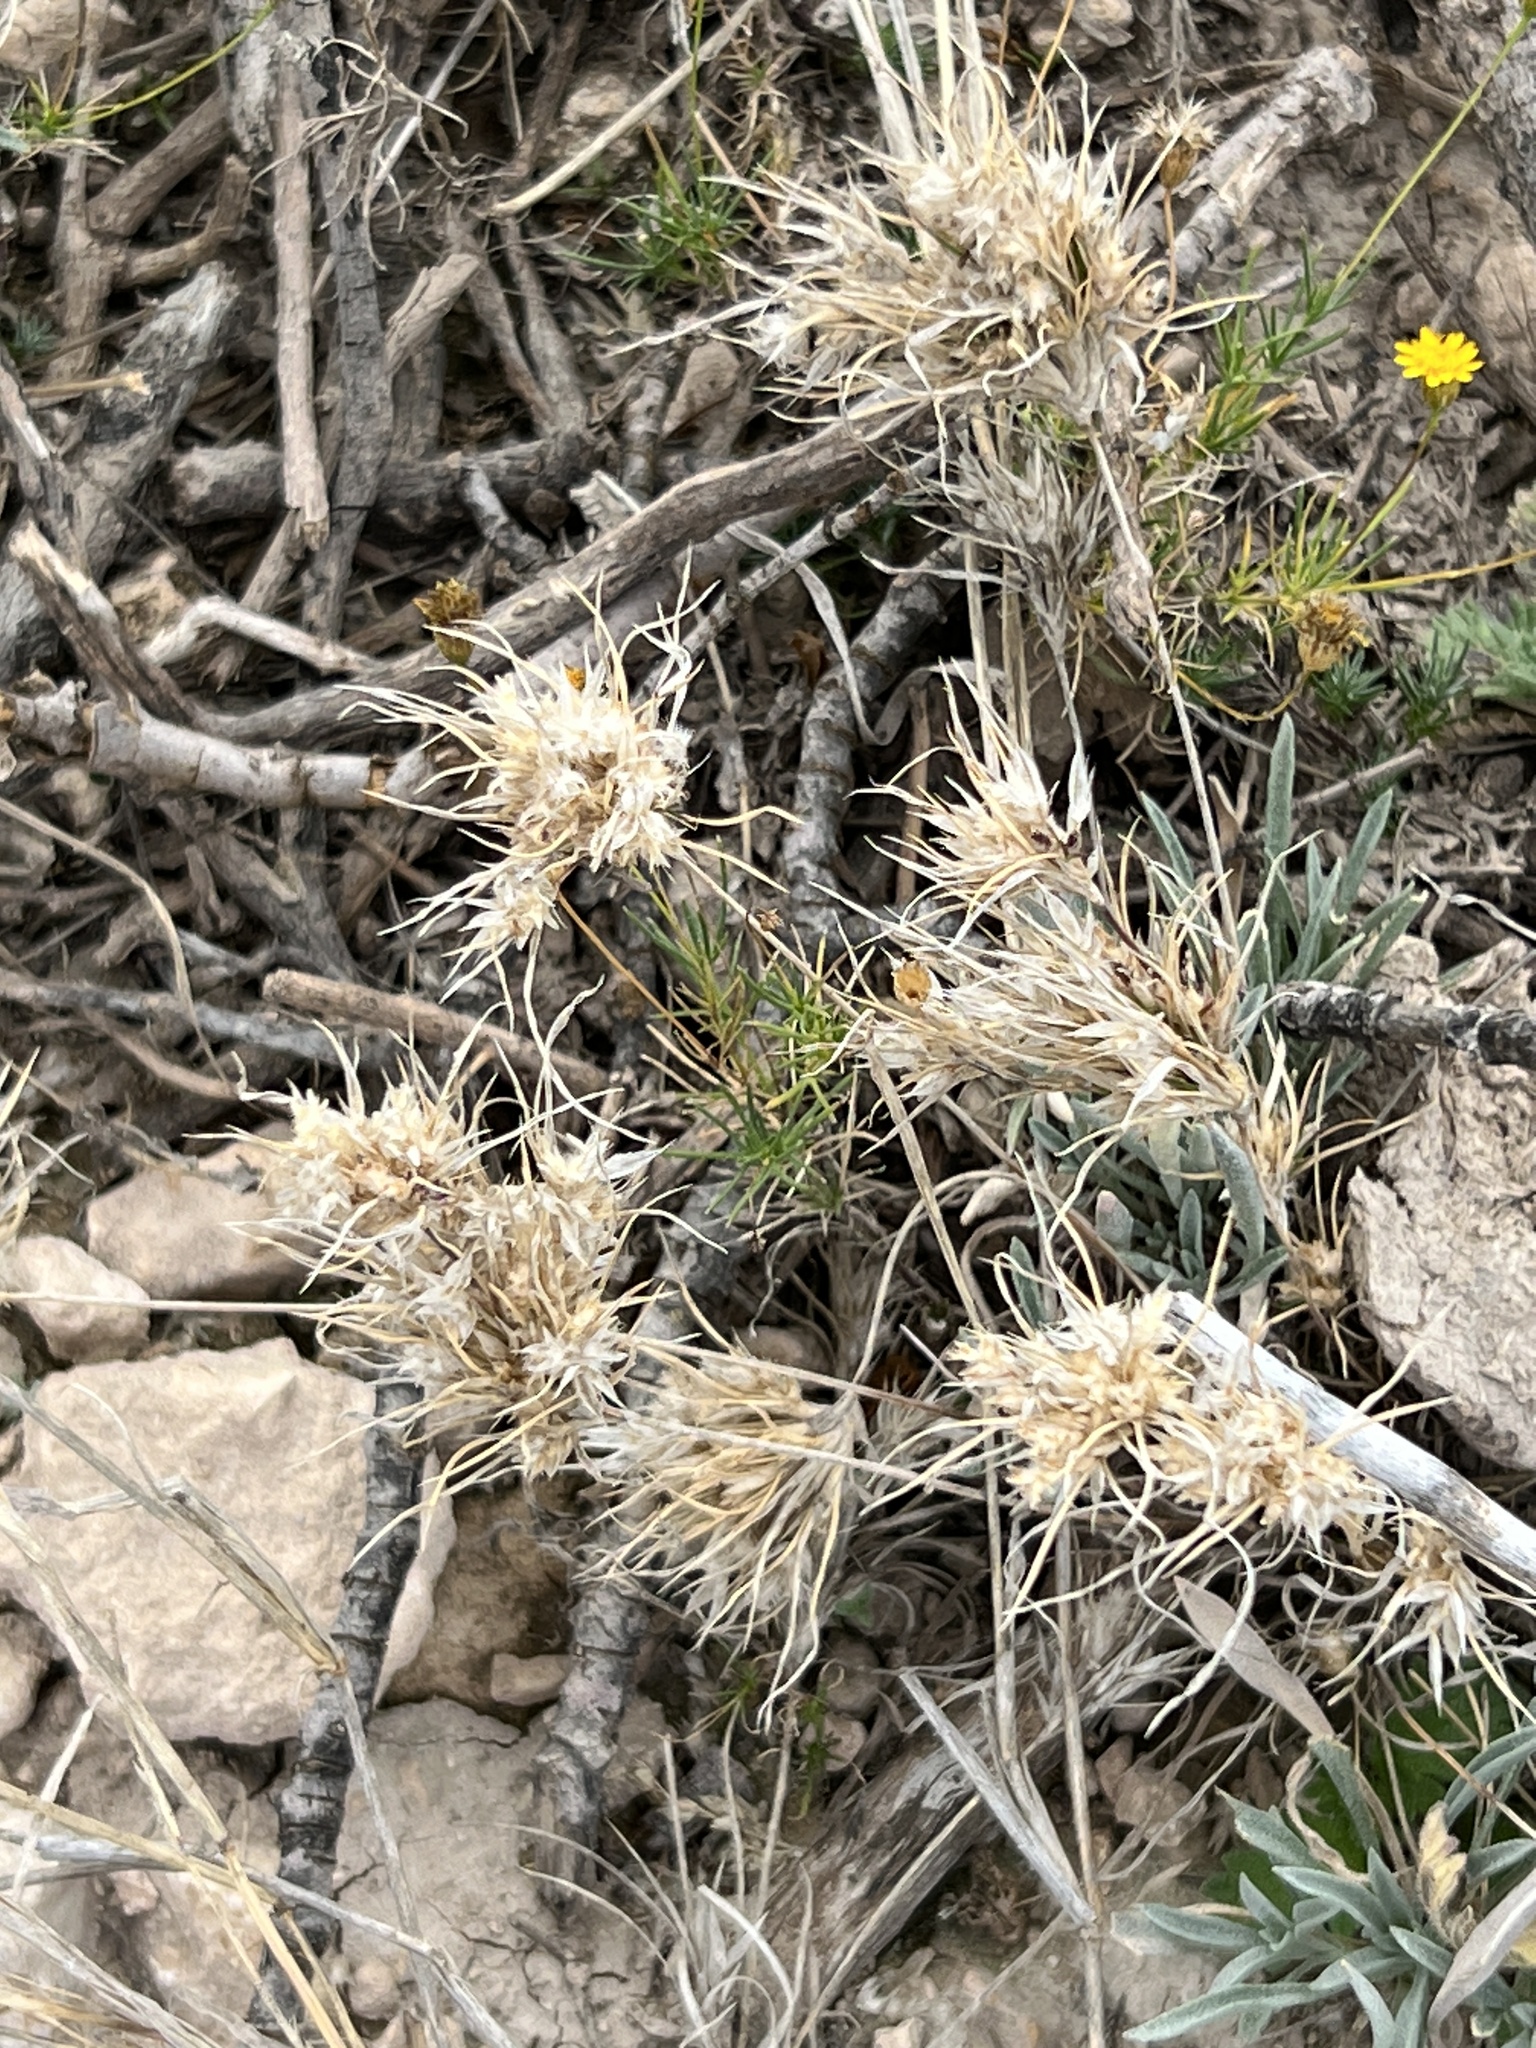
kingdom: Plantae
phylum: Tracheophyta
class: Liliopsida
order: Poales
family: Poaceae
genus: Dasyochloa
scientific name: Dasyochloa pulchella
